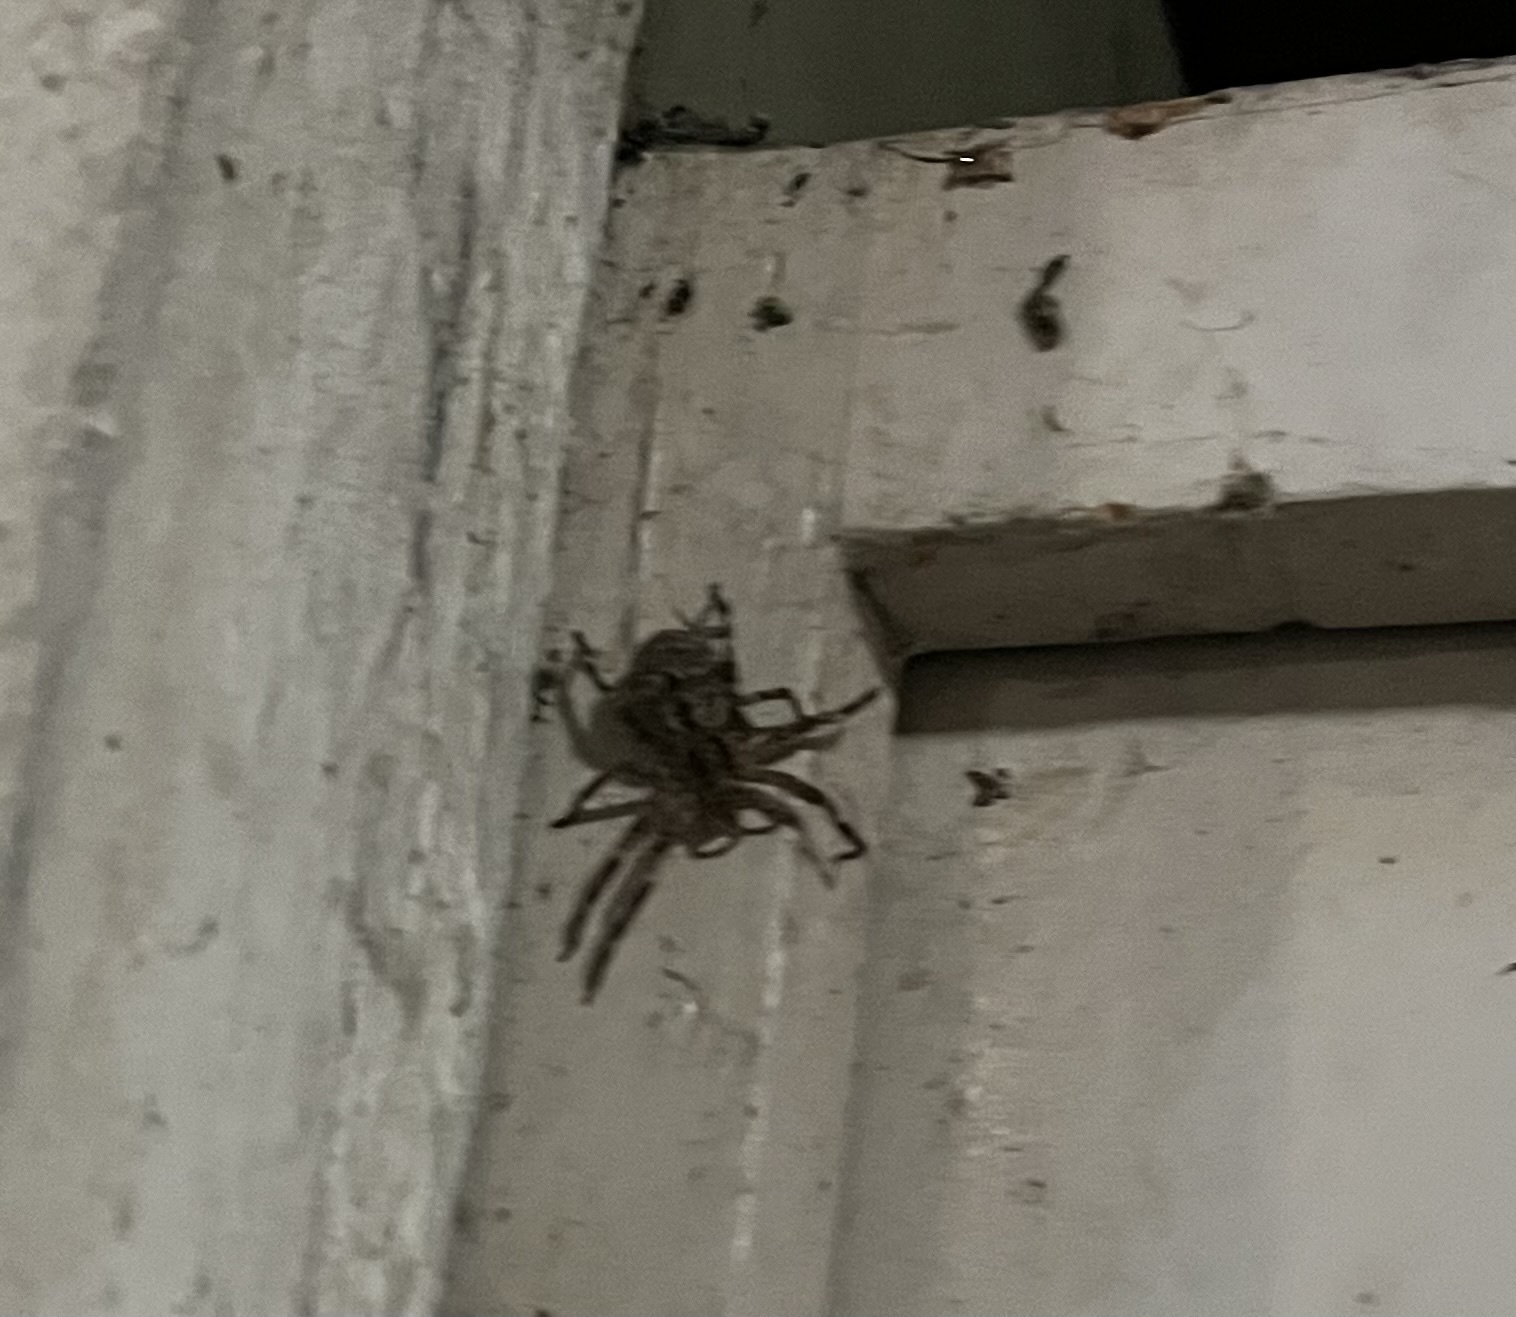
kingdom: Animalia
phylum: Arthropoda
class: Arachnida
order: Araneae
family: Zoropsidae
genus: Zoropsis
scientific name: Zoropsis spinimana
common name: Zoropsid spider
